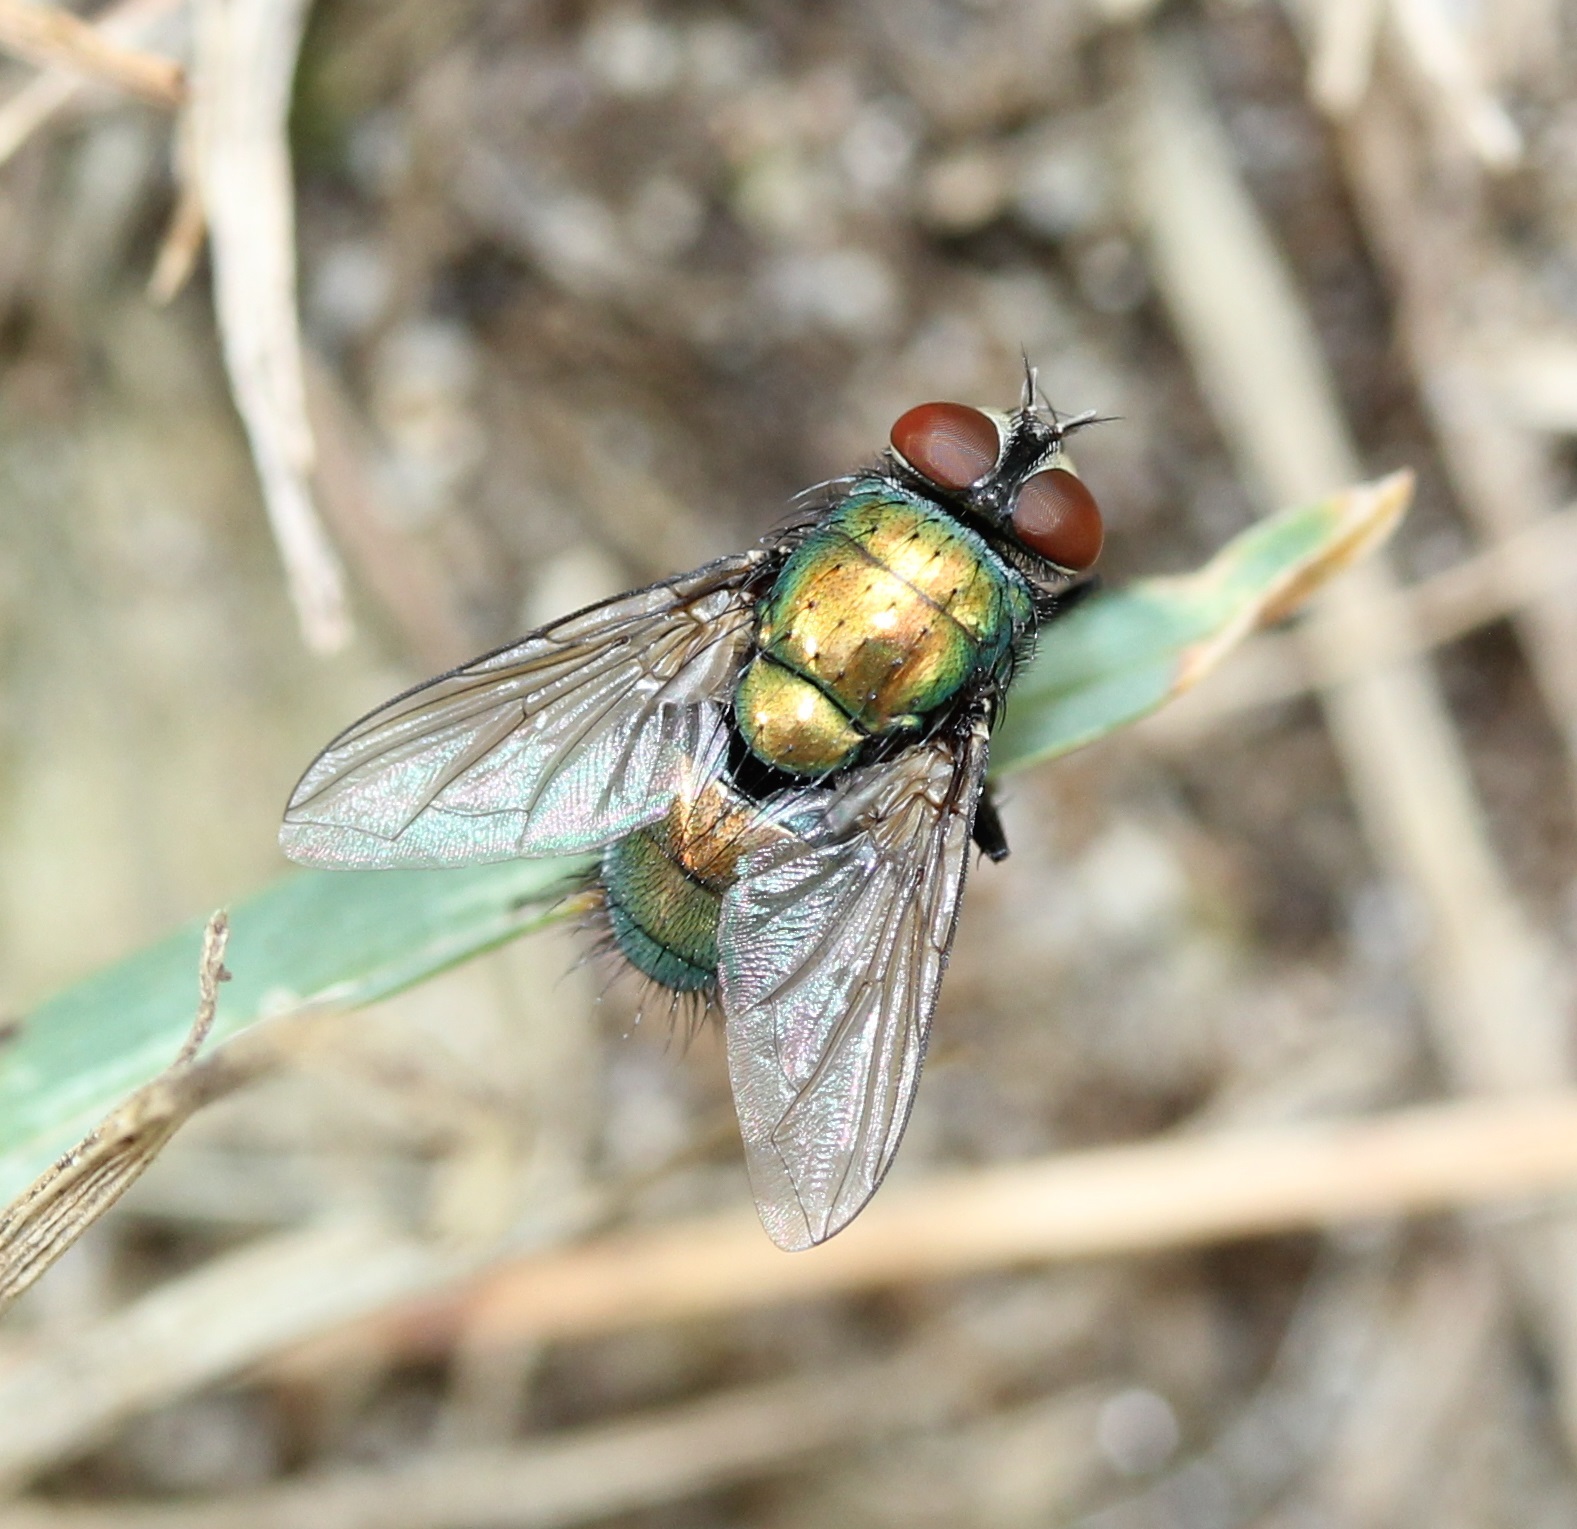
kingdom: Animalia
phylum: Arthropoda
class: Insecta
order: Diptera
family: Calliphoridae
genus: Lucilia
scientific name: Lucilia sericata
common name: Blow fly
